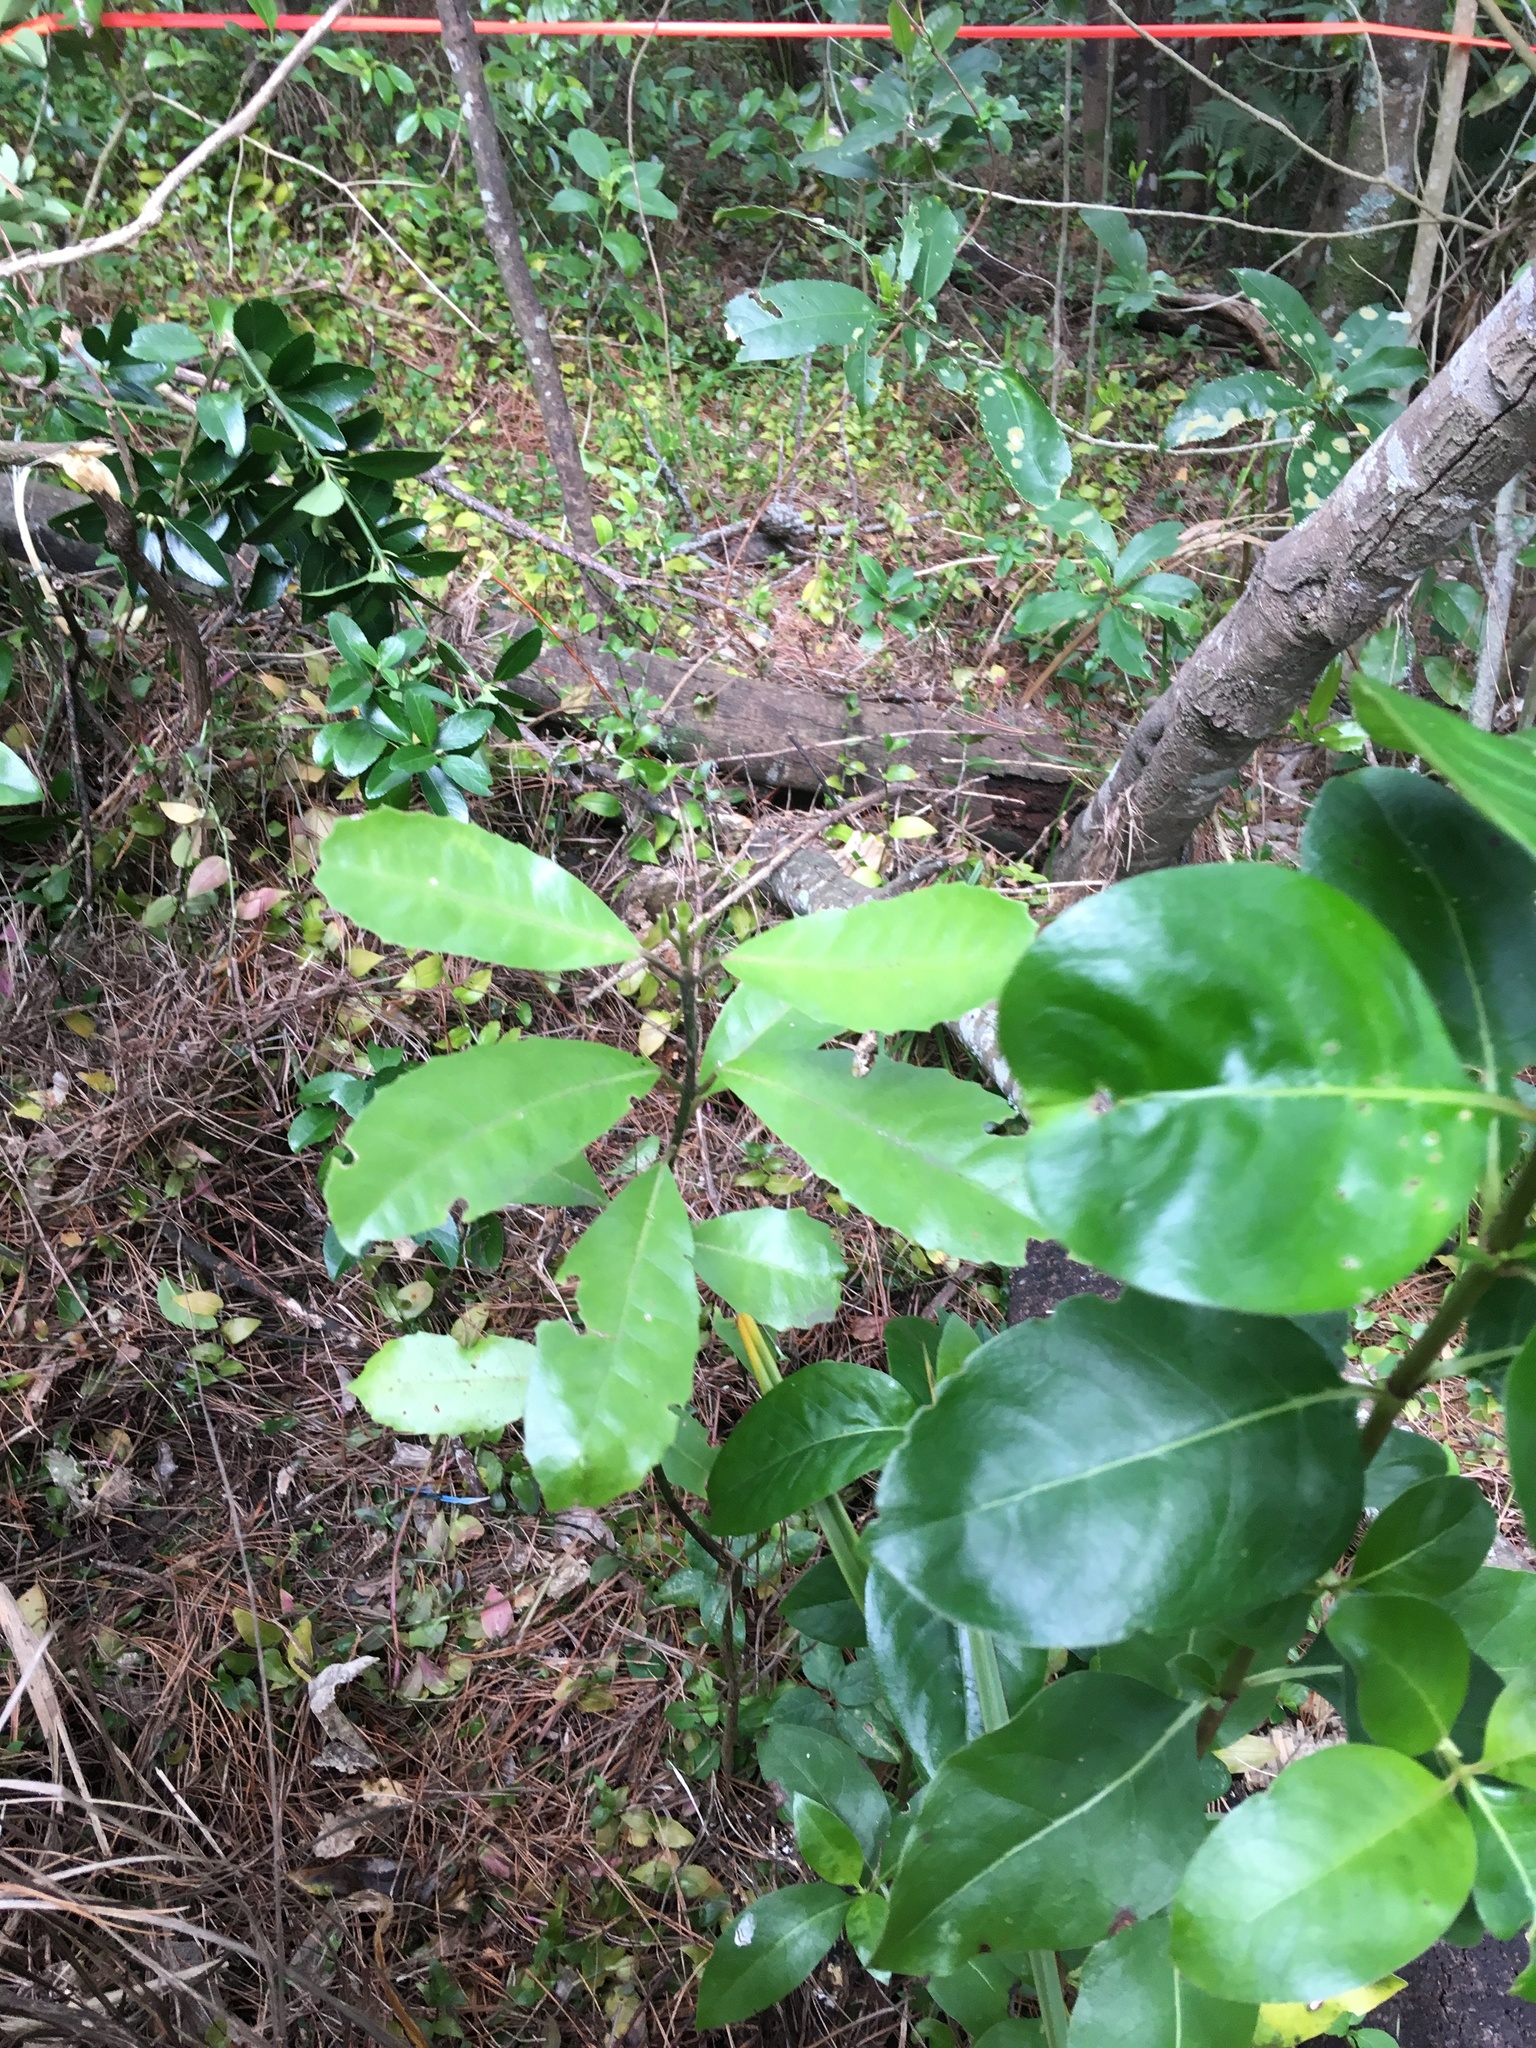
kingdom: Plantae
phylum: Tracheophyta
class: Magnoliopsida
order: Laurales
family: Monimiaceae
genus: Hedycarya
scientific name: Hedycarya arborea
